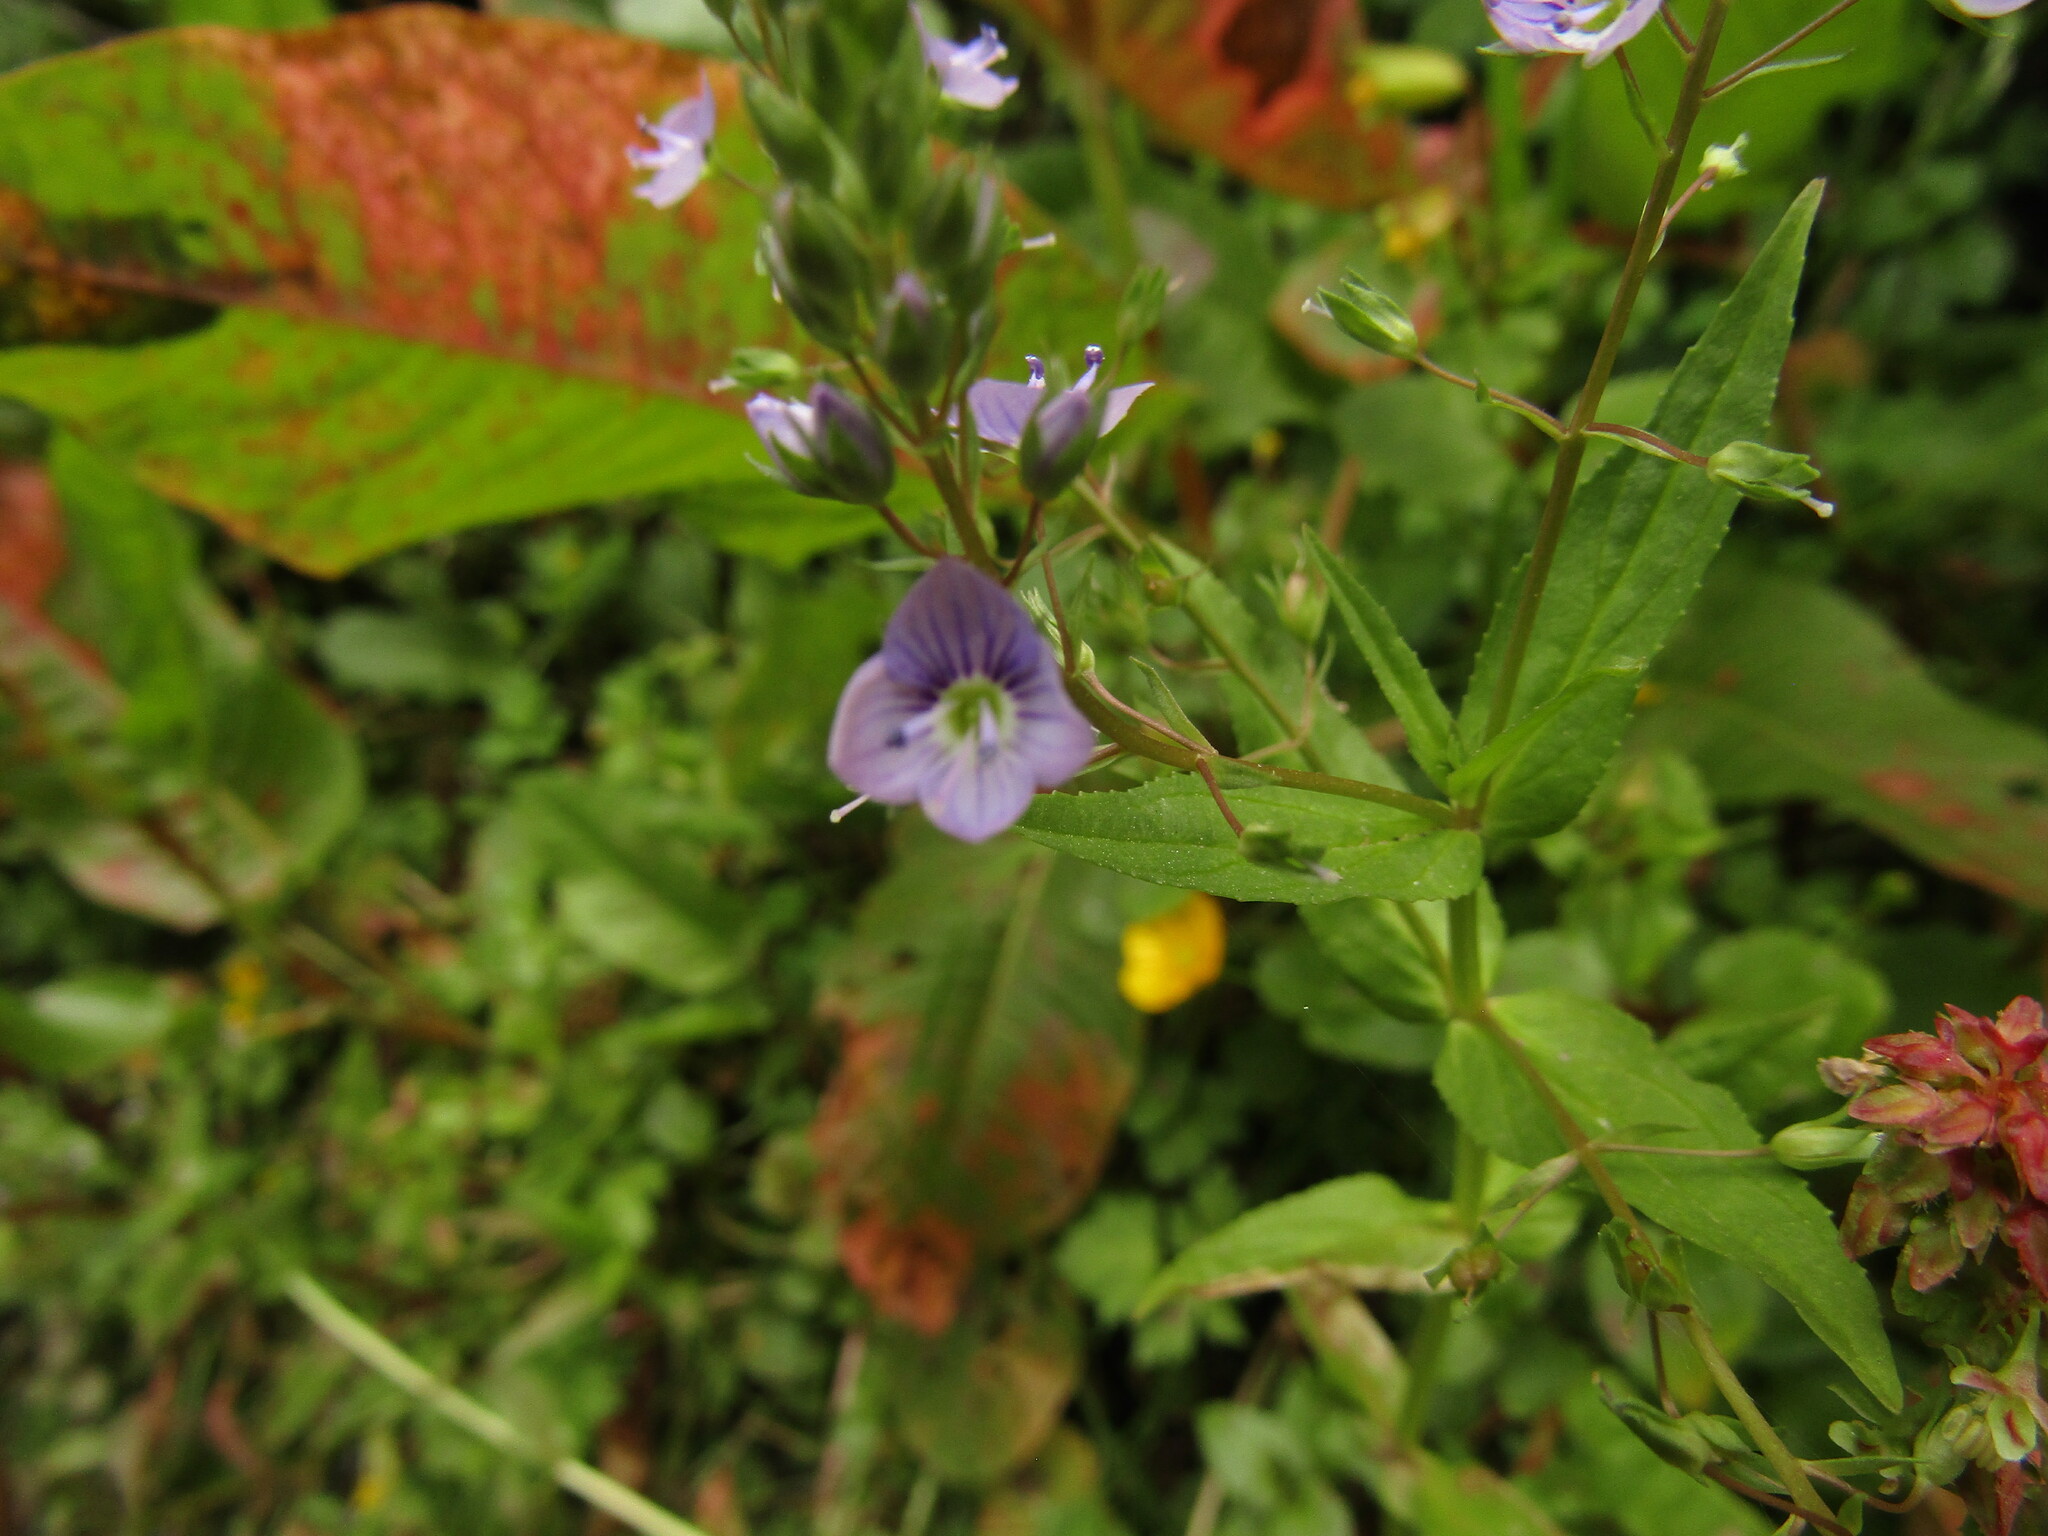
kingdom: Plantae
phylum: Tracheophyta
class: Magnoliopsida
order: Lamiales
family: Plantaginaceae
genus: Veronica
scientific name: Veronica anagallis-aquatica
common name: Water speedwell
